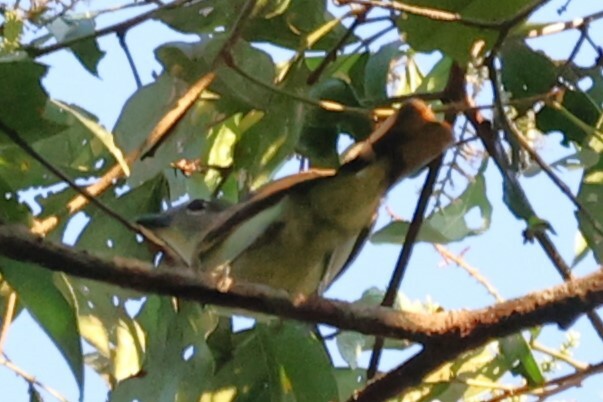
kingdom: Animalia
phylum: Chordata
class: Aves
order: Passeriformes
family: Cotingidae
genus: Pachyramphus
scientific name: Pachyramphus polychopterus
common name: White-winged becard
